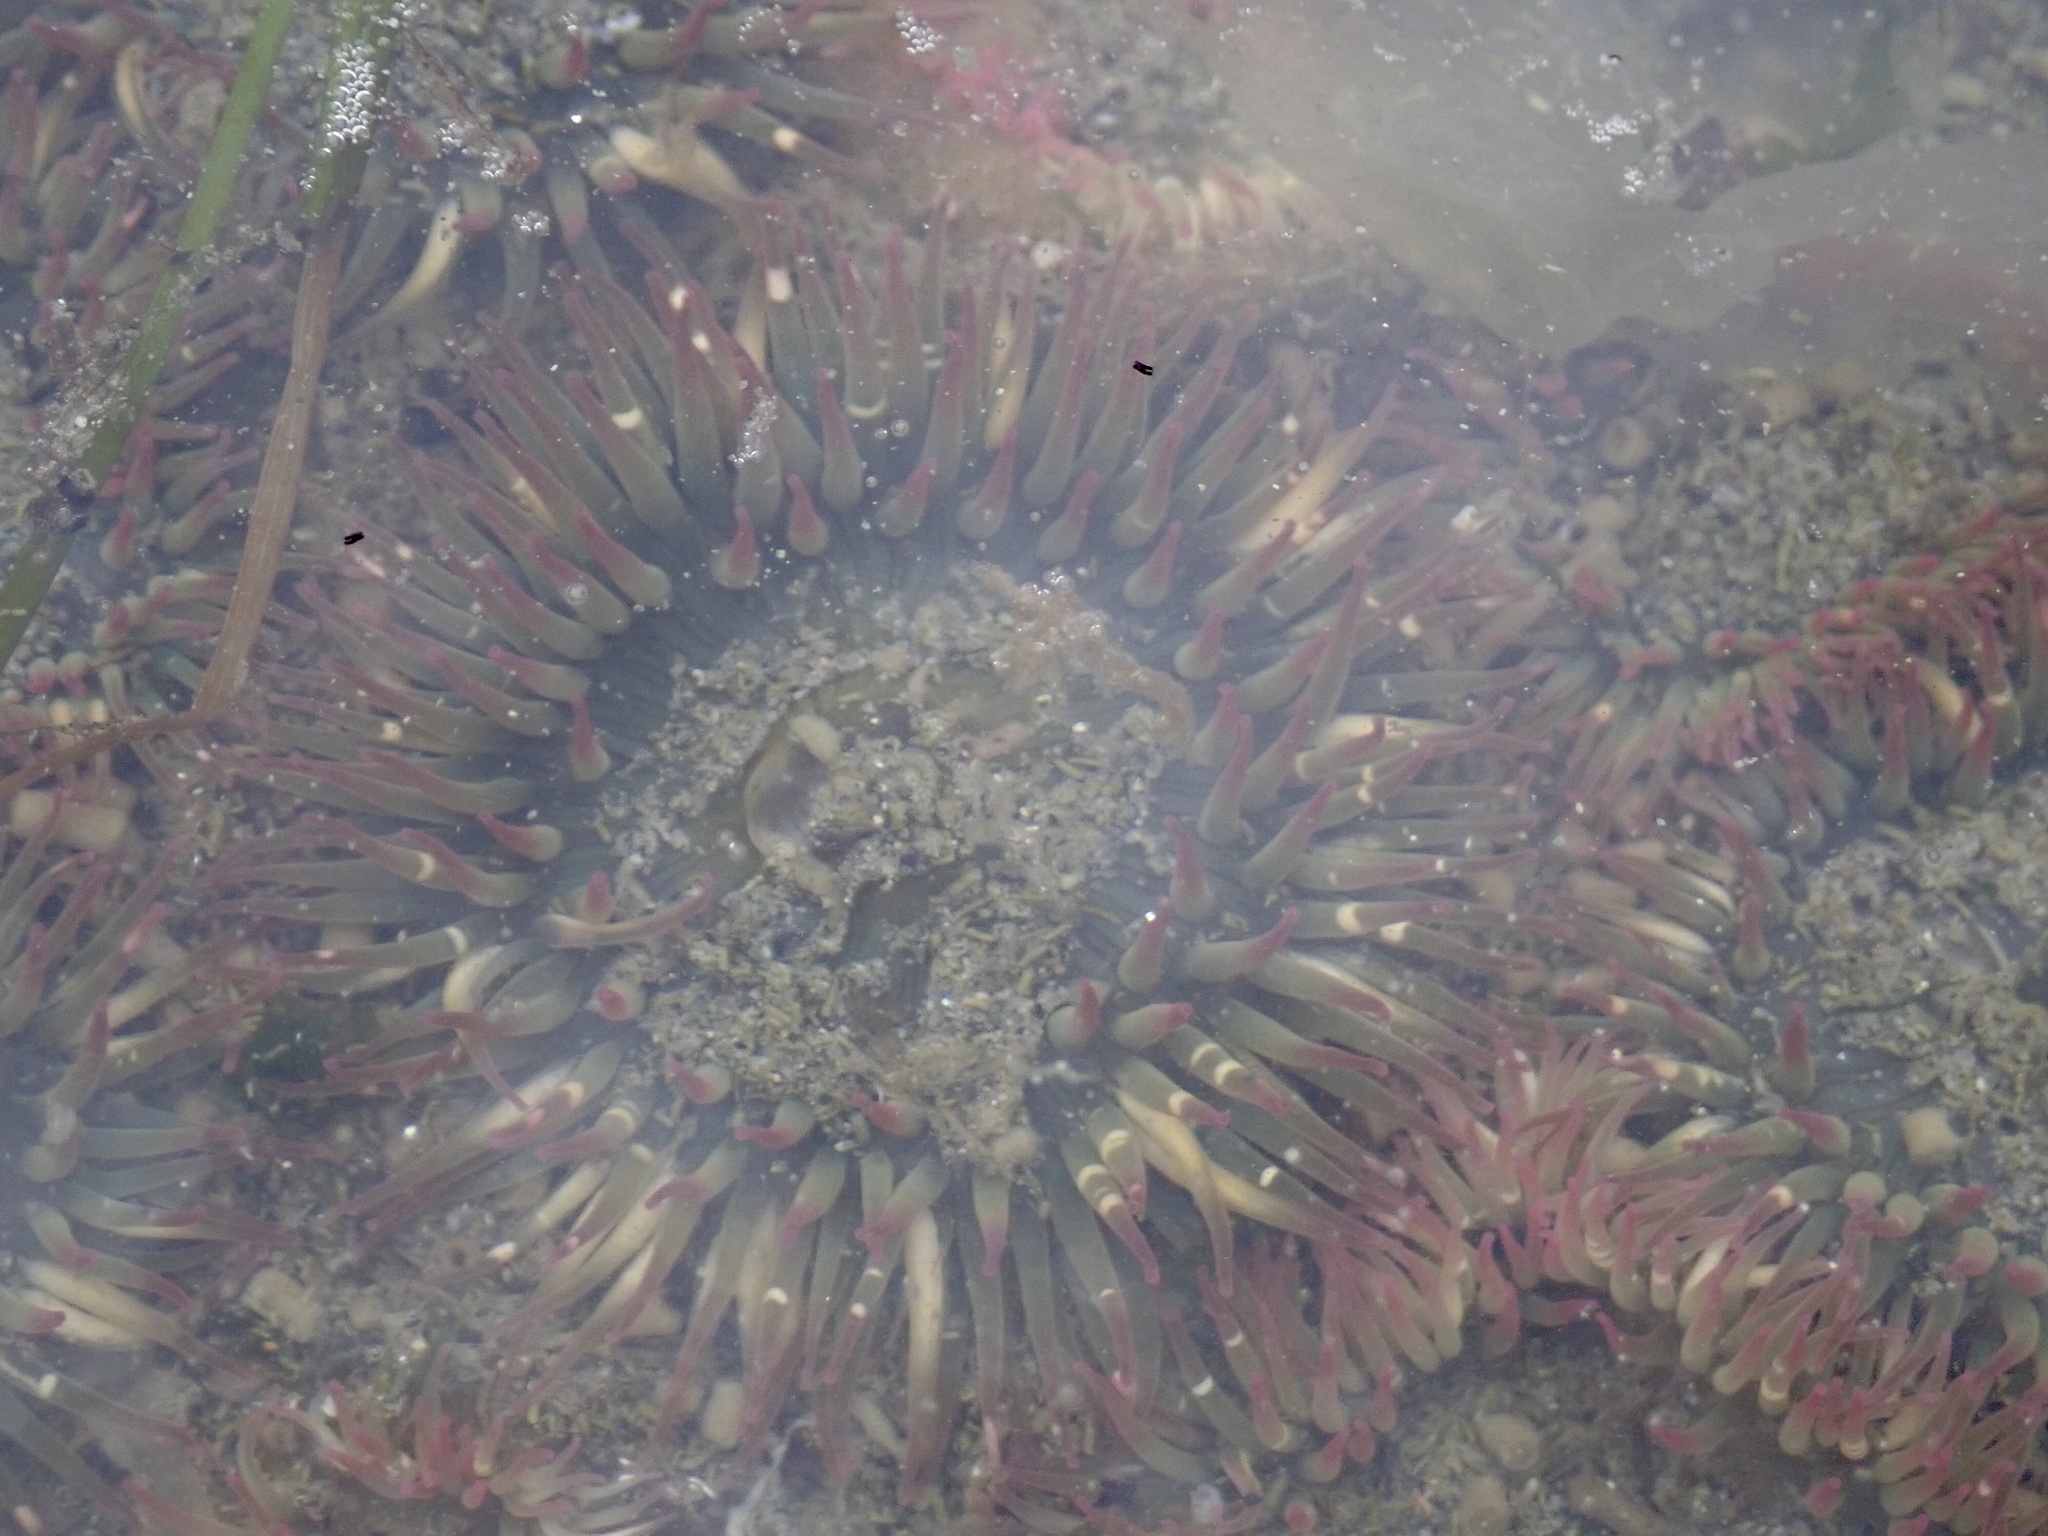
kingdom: Animalia
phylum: Cnidaria
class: Anthozoa
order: Actiniaria
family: Actiniidae
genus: Anthopleura
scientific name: Anthopleura elegantissima
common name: Clonal anemone
